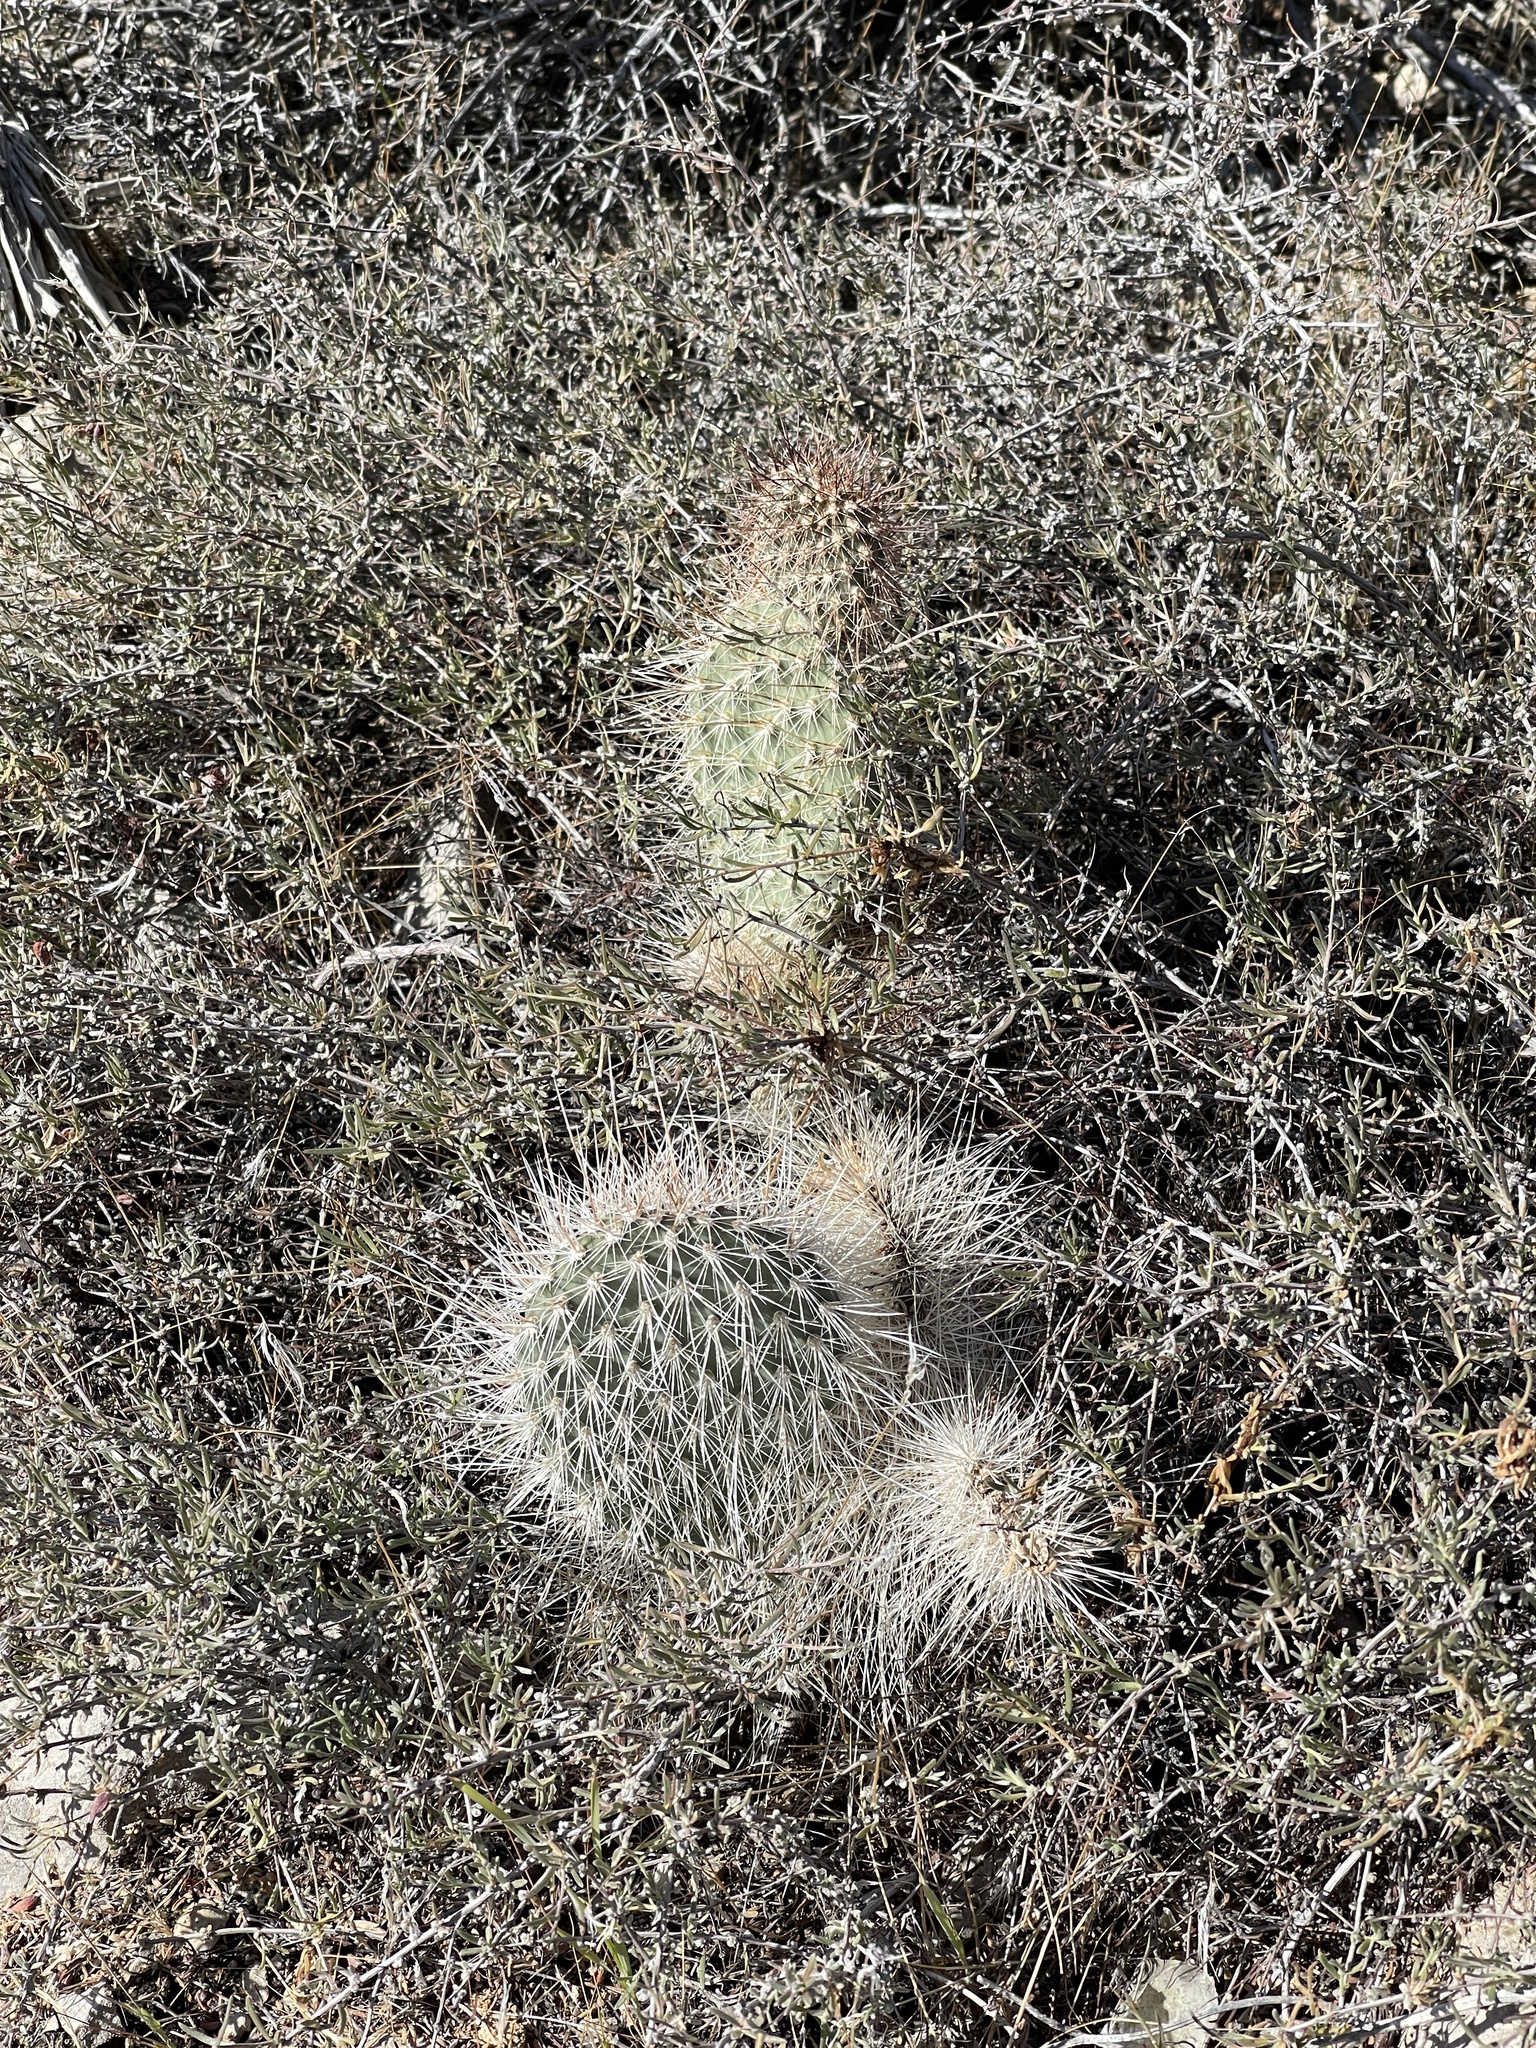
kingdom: Plantae
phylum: Tracheophyta
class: Magnoliopsida
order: Caryophyllales
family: Cactaceae
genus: Opuntia
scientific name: Opuntia polyacantha
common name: Plains prickly-pear
